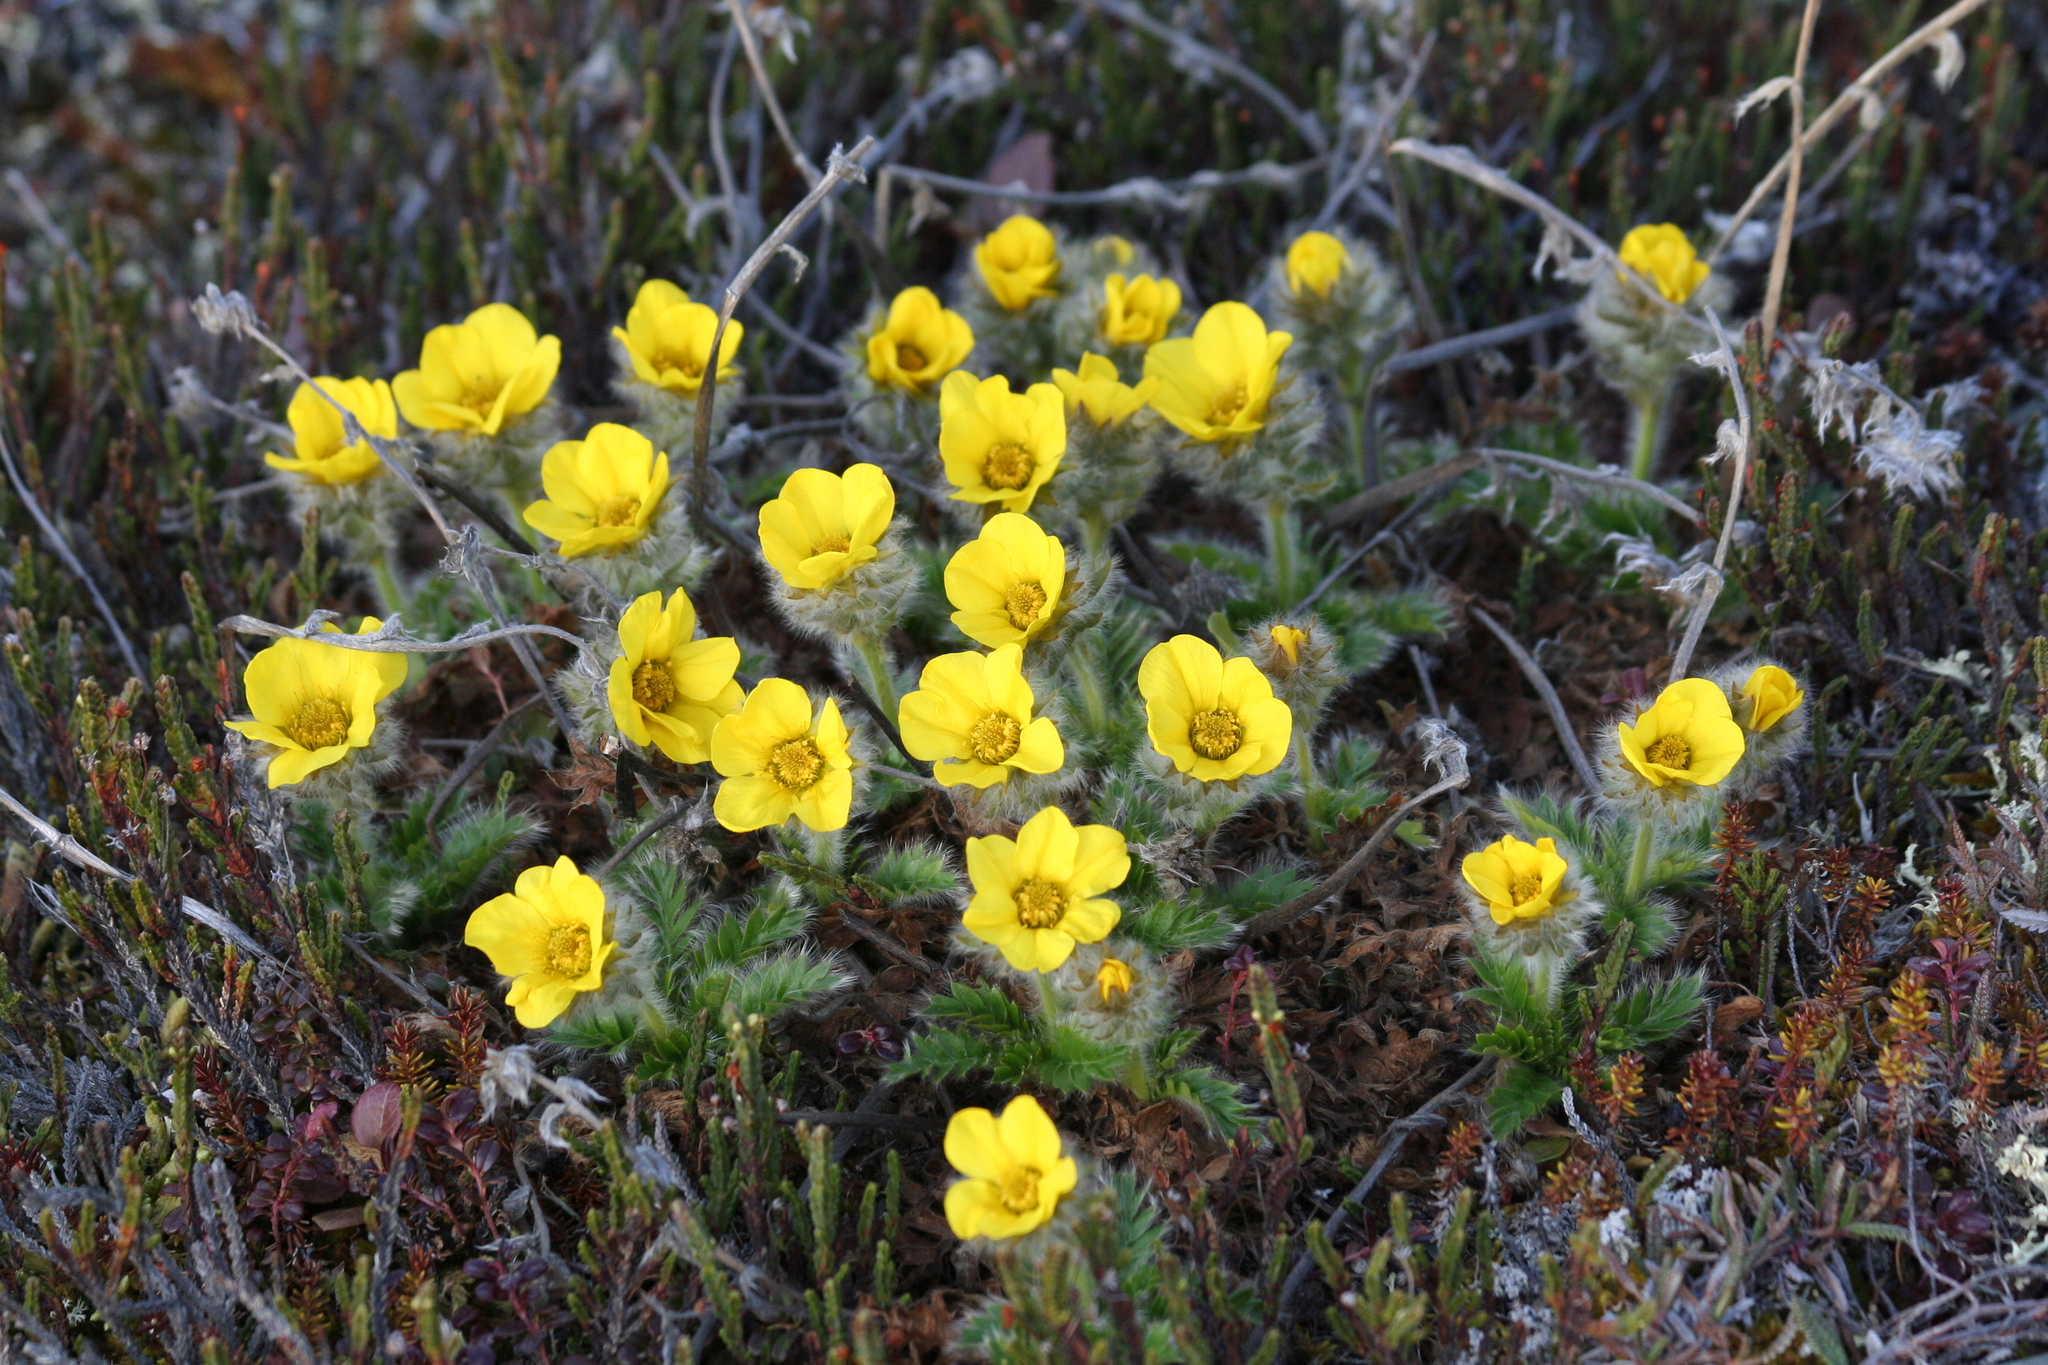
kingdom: Plantae
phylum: Tracheophyta
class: Magnoliopsida
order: Rosales
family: Rosaceae
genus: Geum
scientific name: Geum glaciale
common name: Glacier avens
